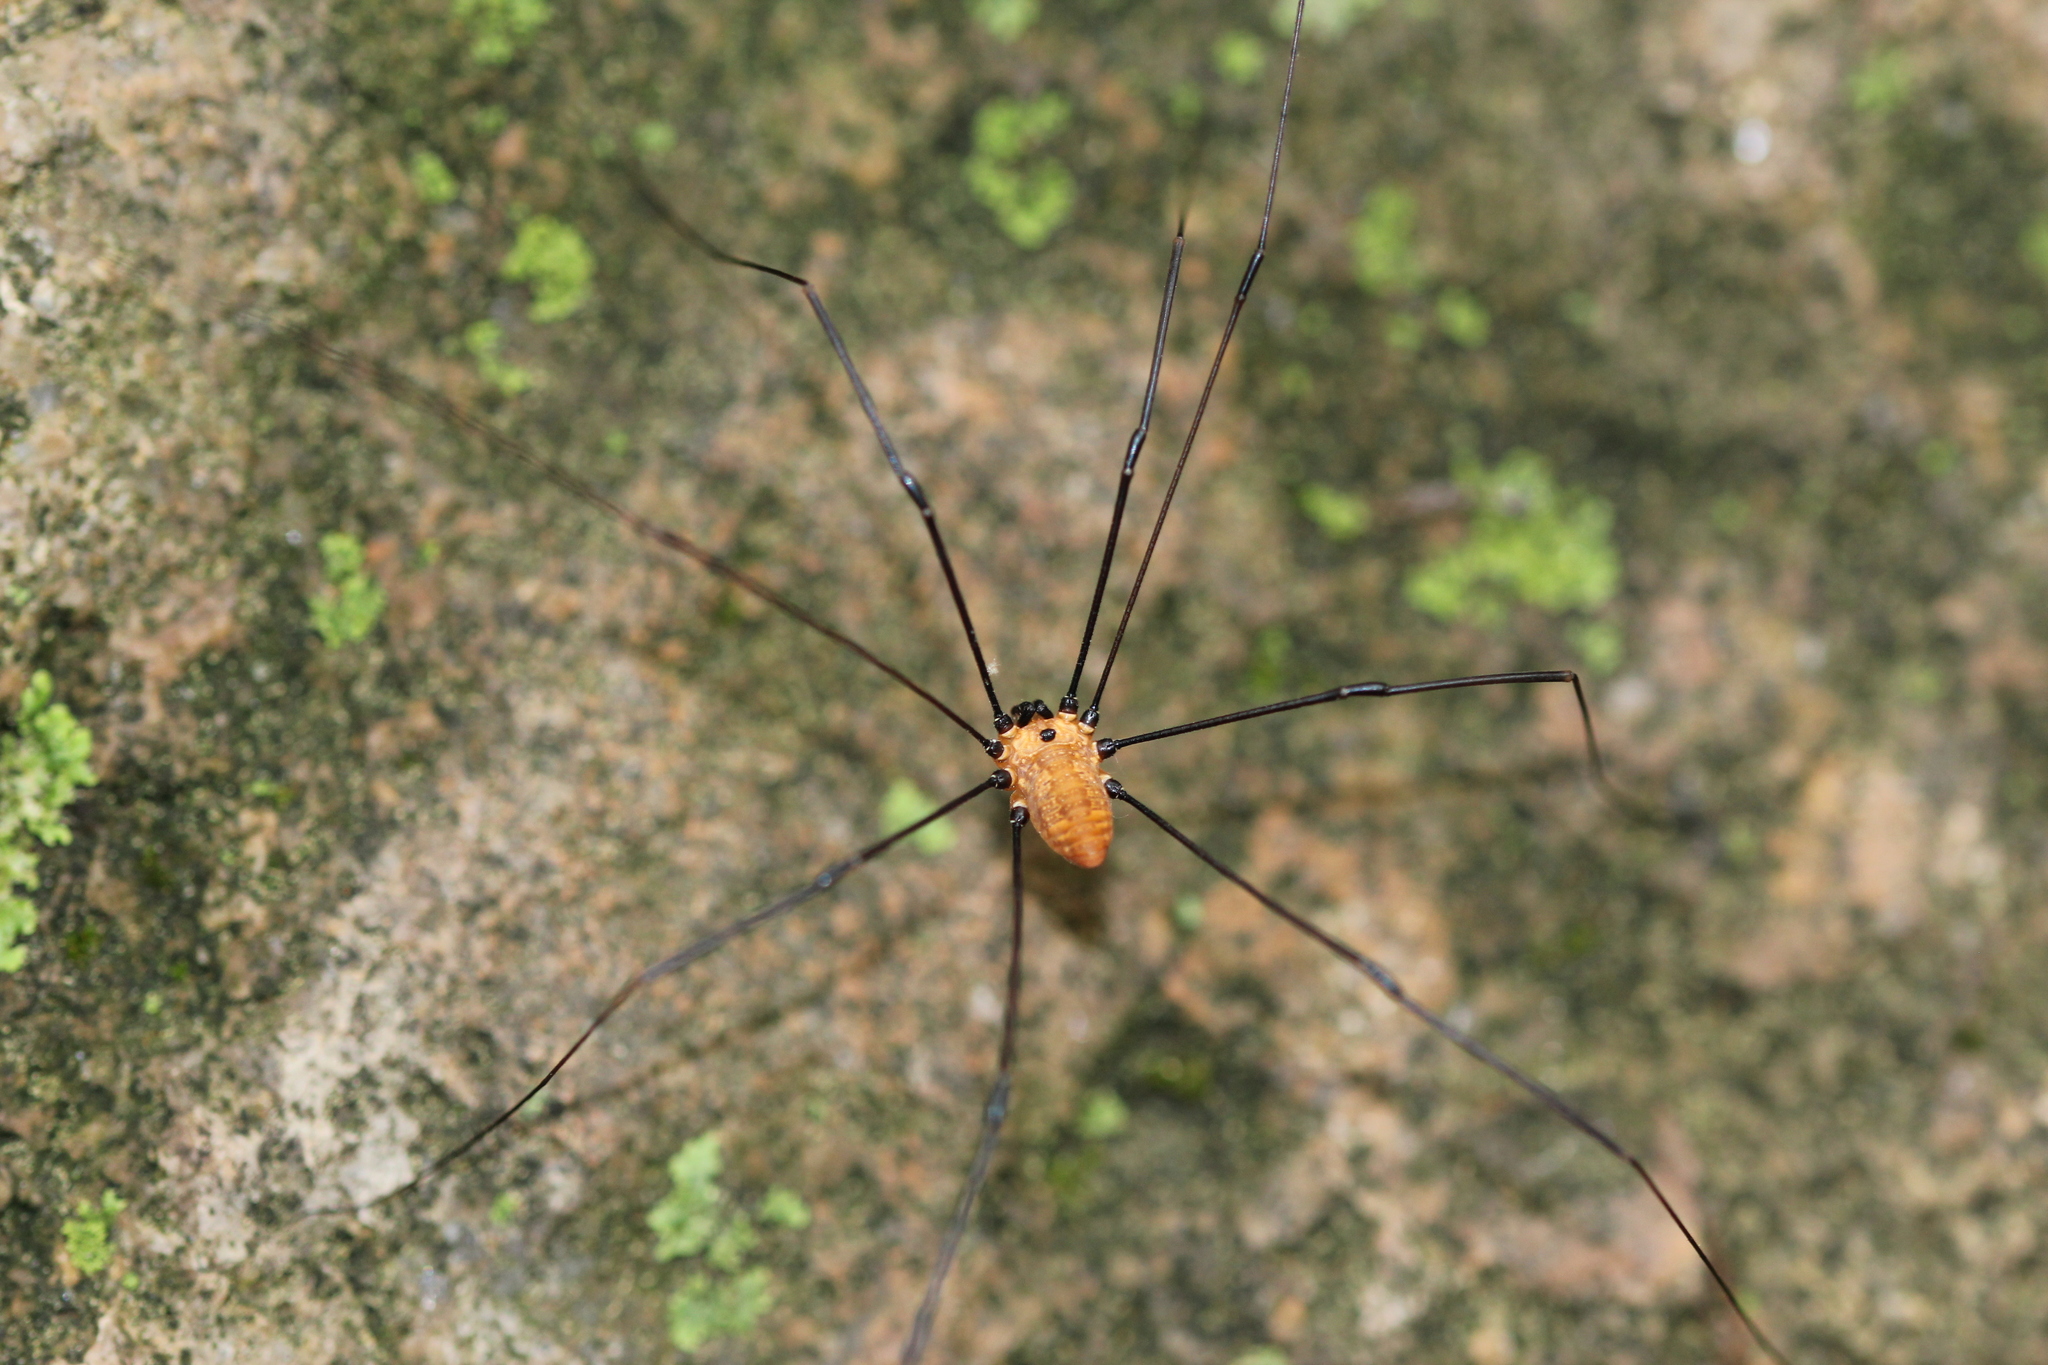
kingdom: Animalia
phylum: Arthropoda
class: Arachnida
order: Opiliones
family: Sclerosomatidae
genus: Leiobunum
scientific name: Leiobunum nigropalpi
